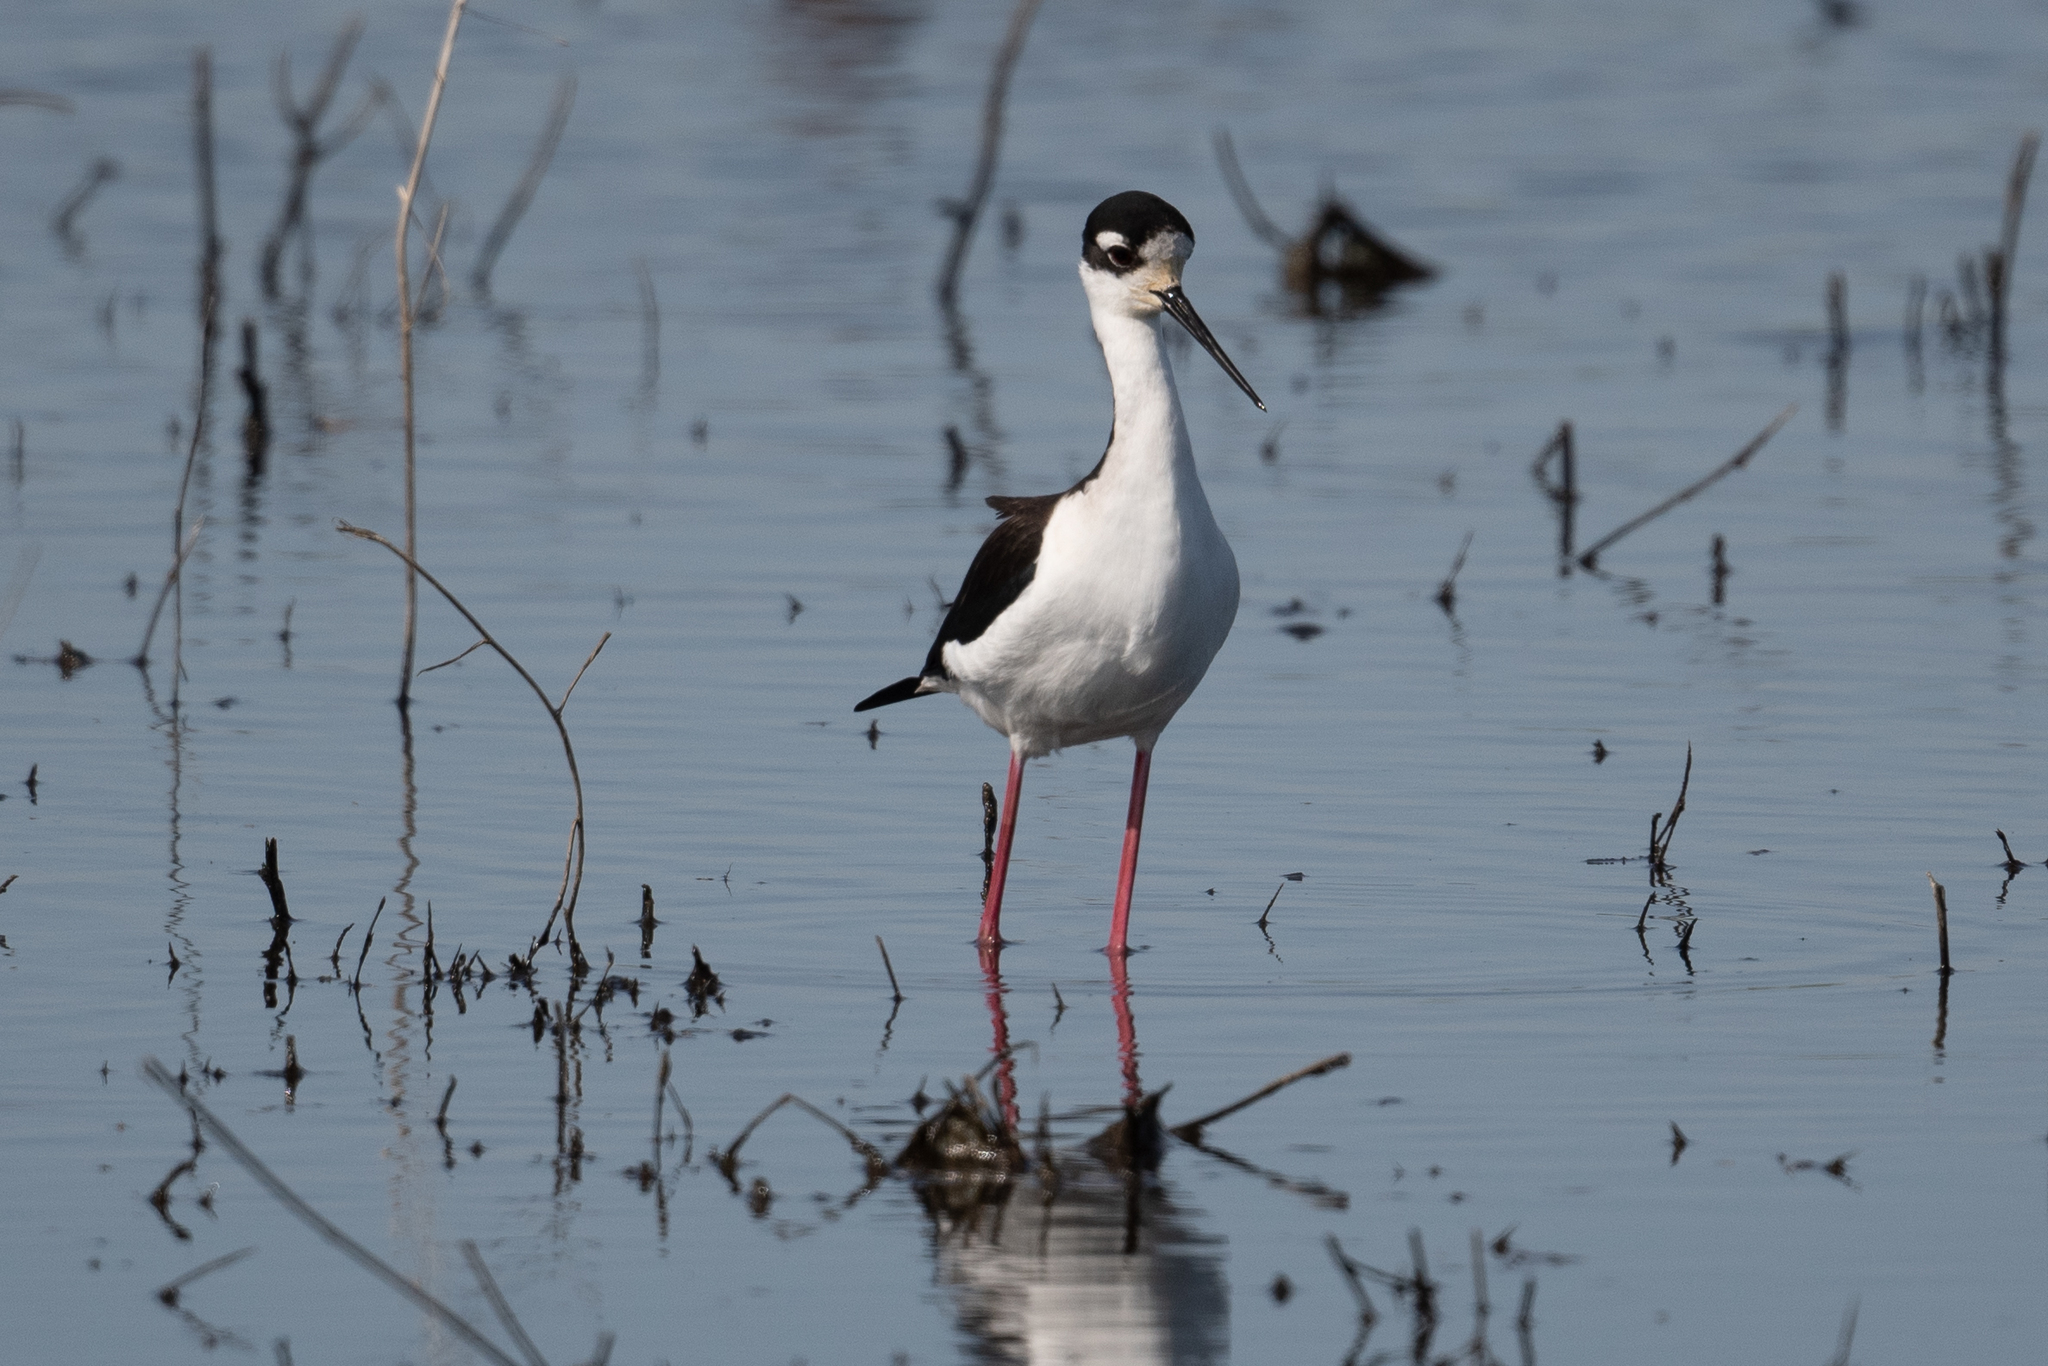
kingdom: Animalia
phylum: Chordata
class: Aves
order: Charadriiformes
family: Recurvirostridae
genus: Himantopus
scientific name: Himantopus mexicanus
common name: Black-necked stilt
